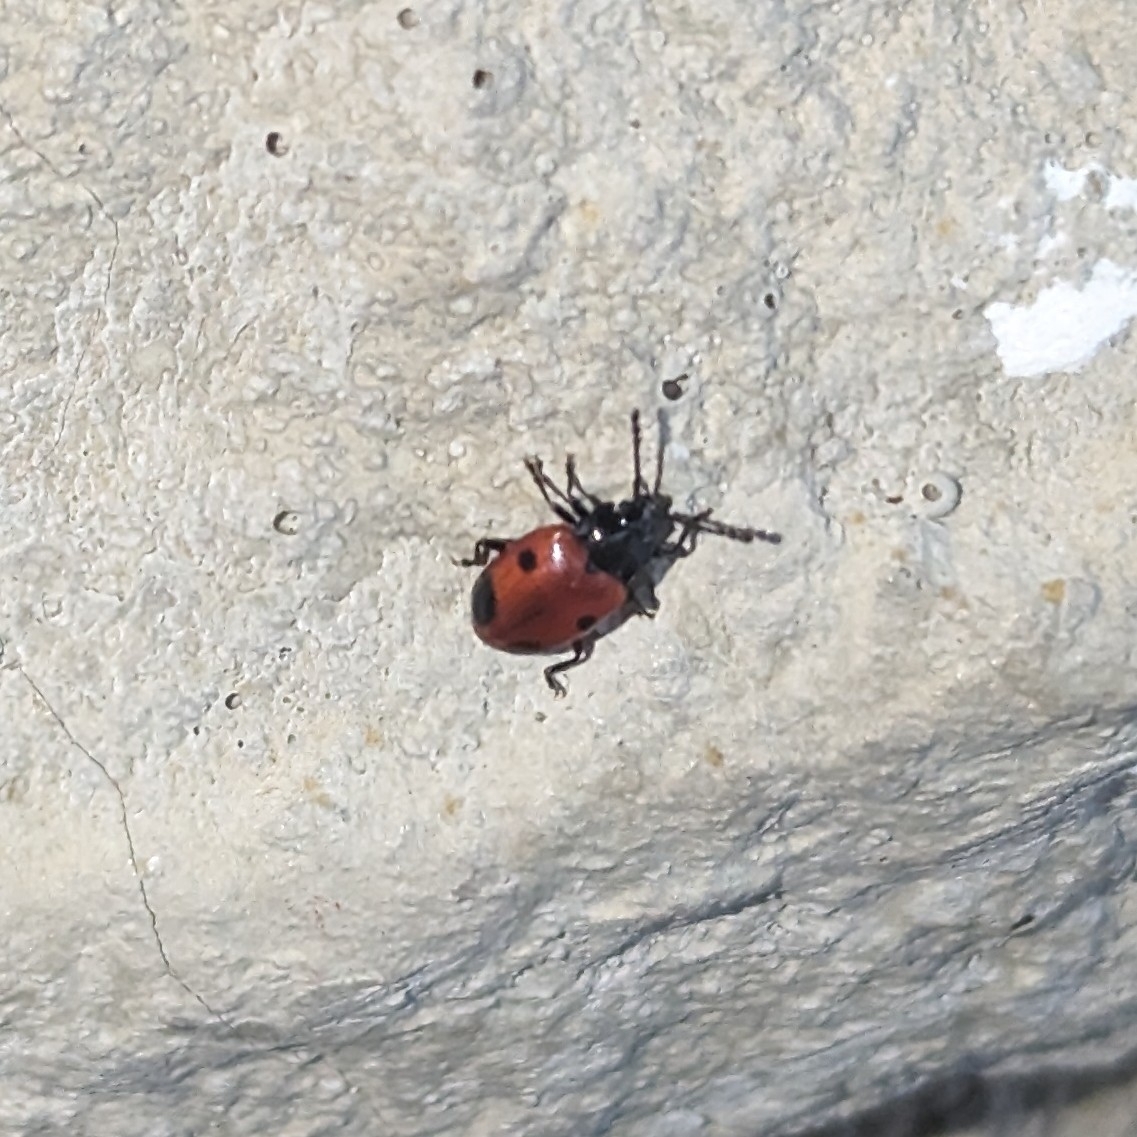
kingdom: Animalia
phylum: Arthropoda
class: Insecta
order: Coleoptera
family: Endomychidae
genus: Endomychus
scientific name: Endomychus biguttatus
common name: Handsome fungus beetle
